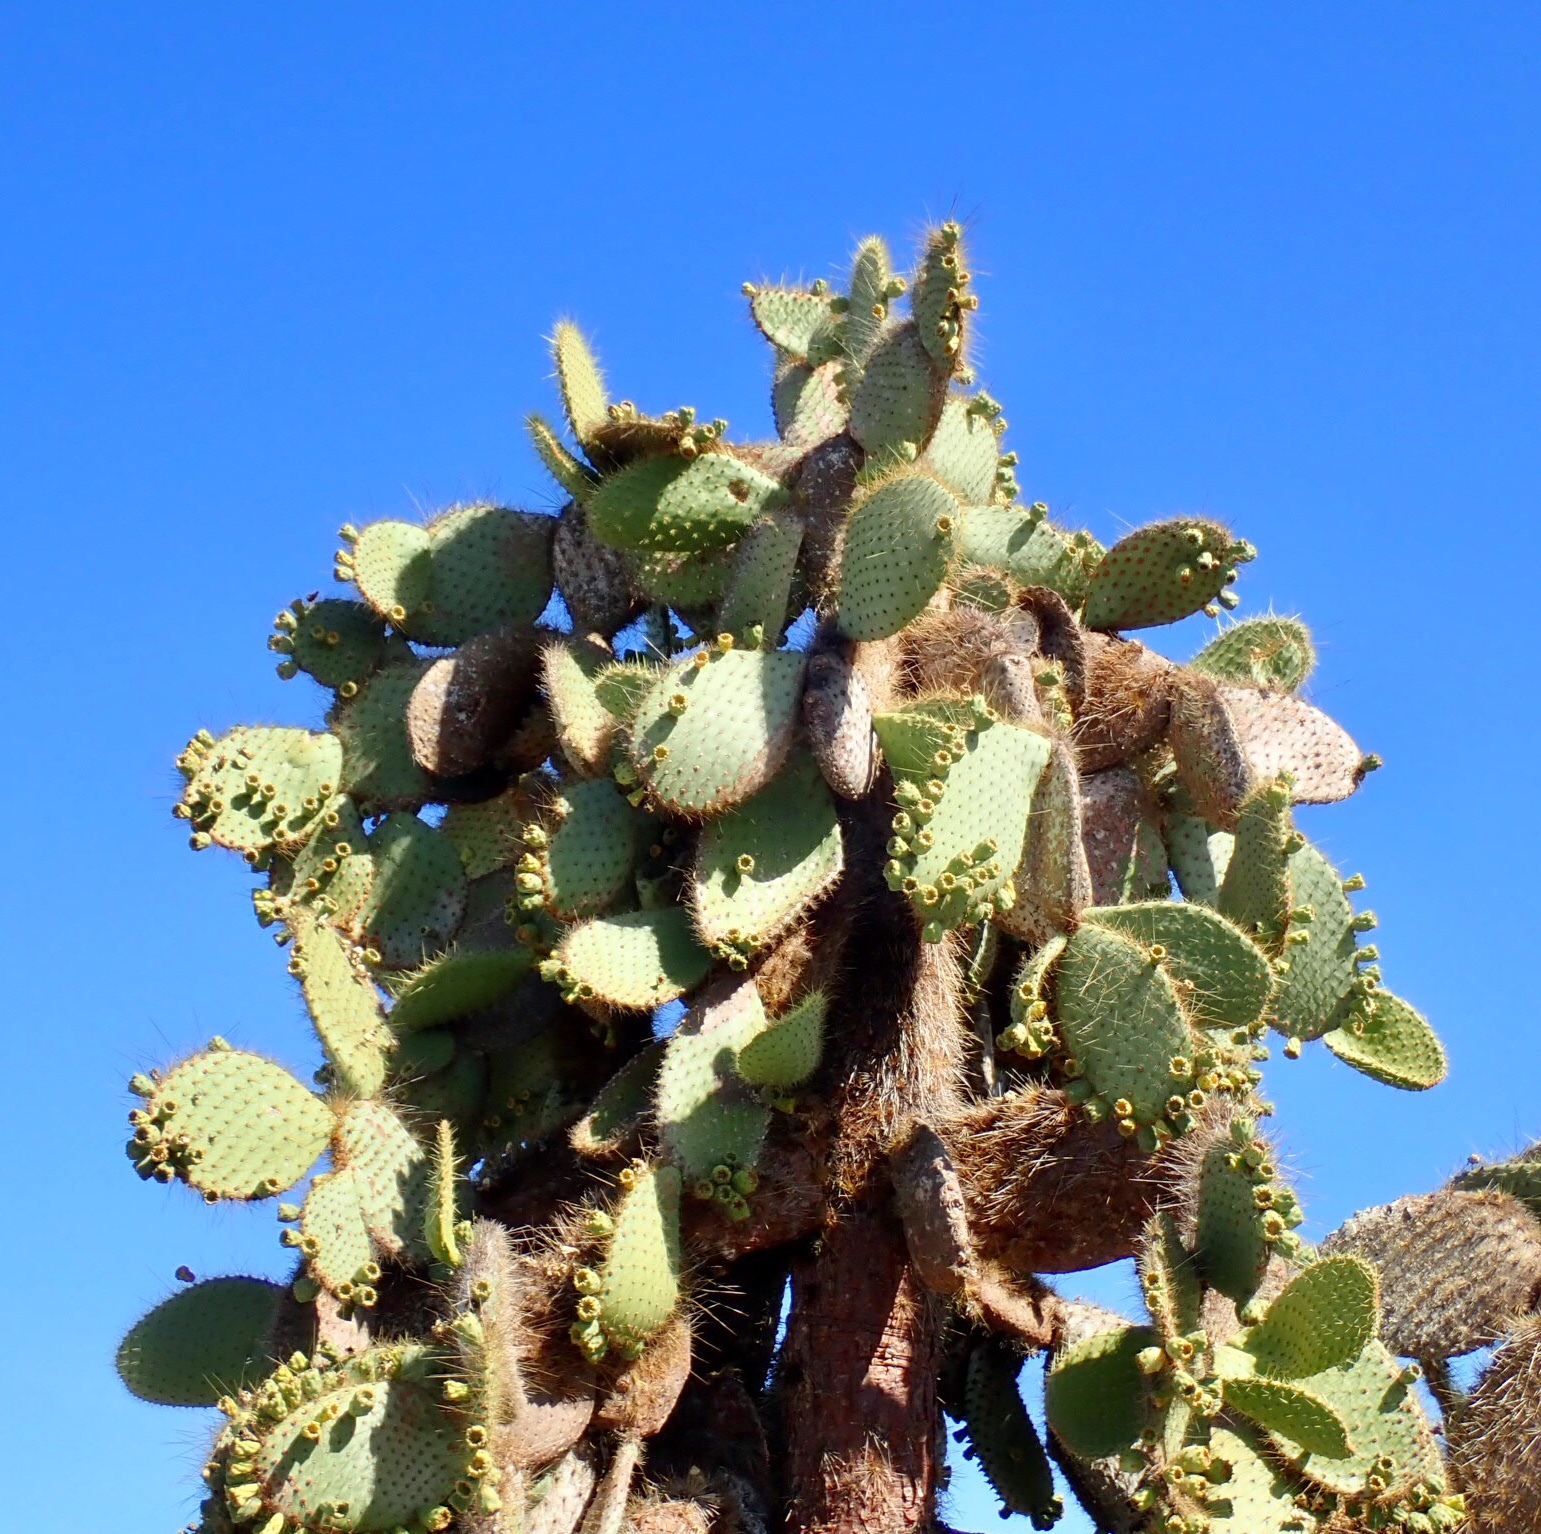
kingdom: Plantae
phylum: Tracheophyta
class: Magnoliopsida
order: Caryophyllales
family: Cactaceae
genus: Opuntia
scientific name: Opuntia galapageia
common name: Galápagos prickly pear
